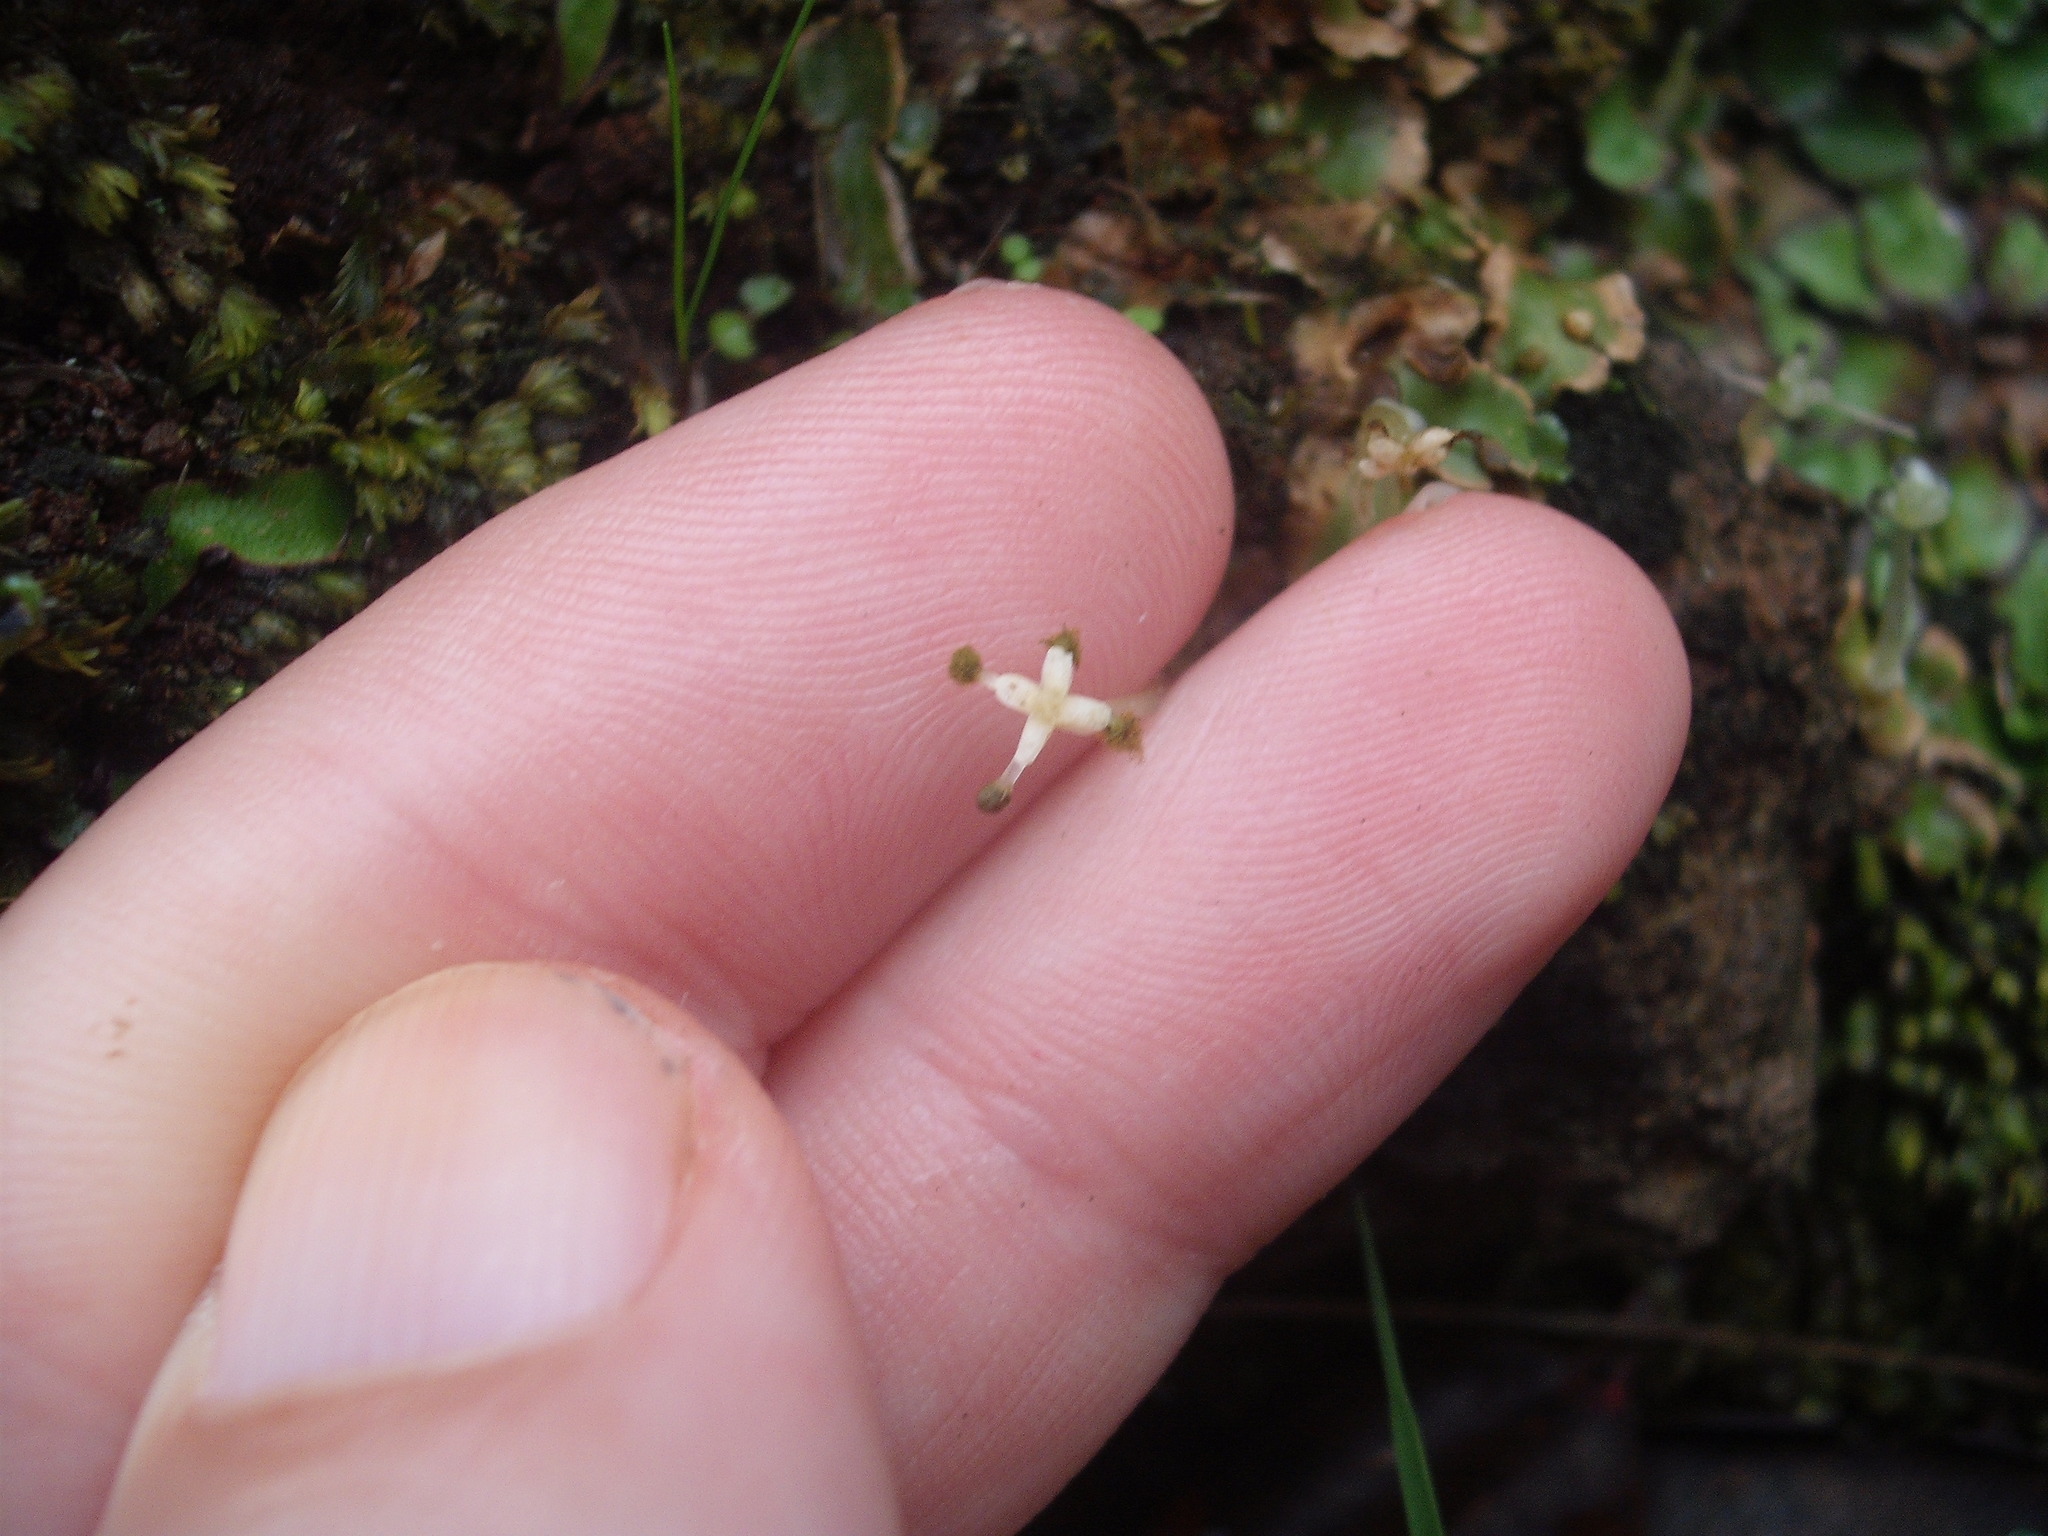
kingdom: Plantae
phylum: Marchantiophyta
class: Marchantiopsida
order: Lunulariales
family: Lunulariaceae
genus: Lunularia
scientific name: Lunularia cruciata
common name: Crescent-cup liverwort
